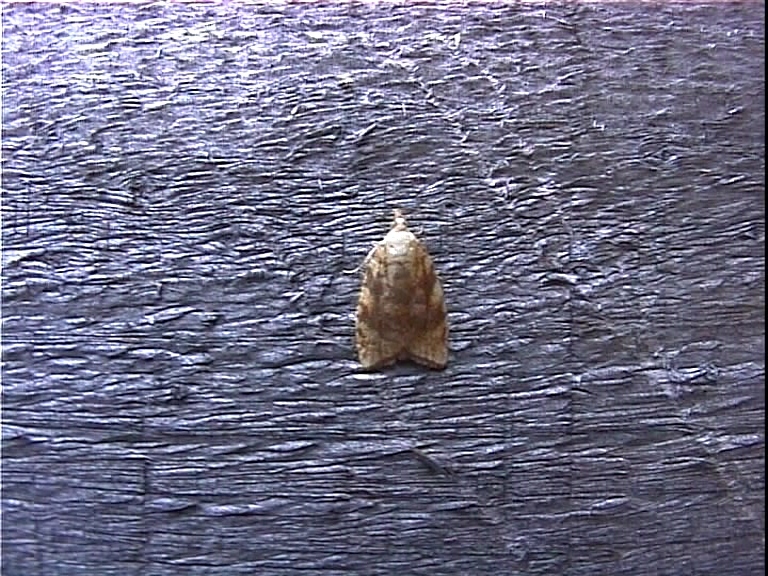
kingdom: Animalia
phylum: Arthropoda
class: Insecta
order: Lepidoptera
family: Tortricidae
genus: Aleimma
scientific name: Aleimma loeflingiana
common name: Yellow oak button
